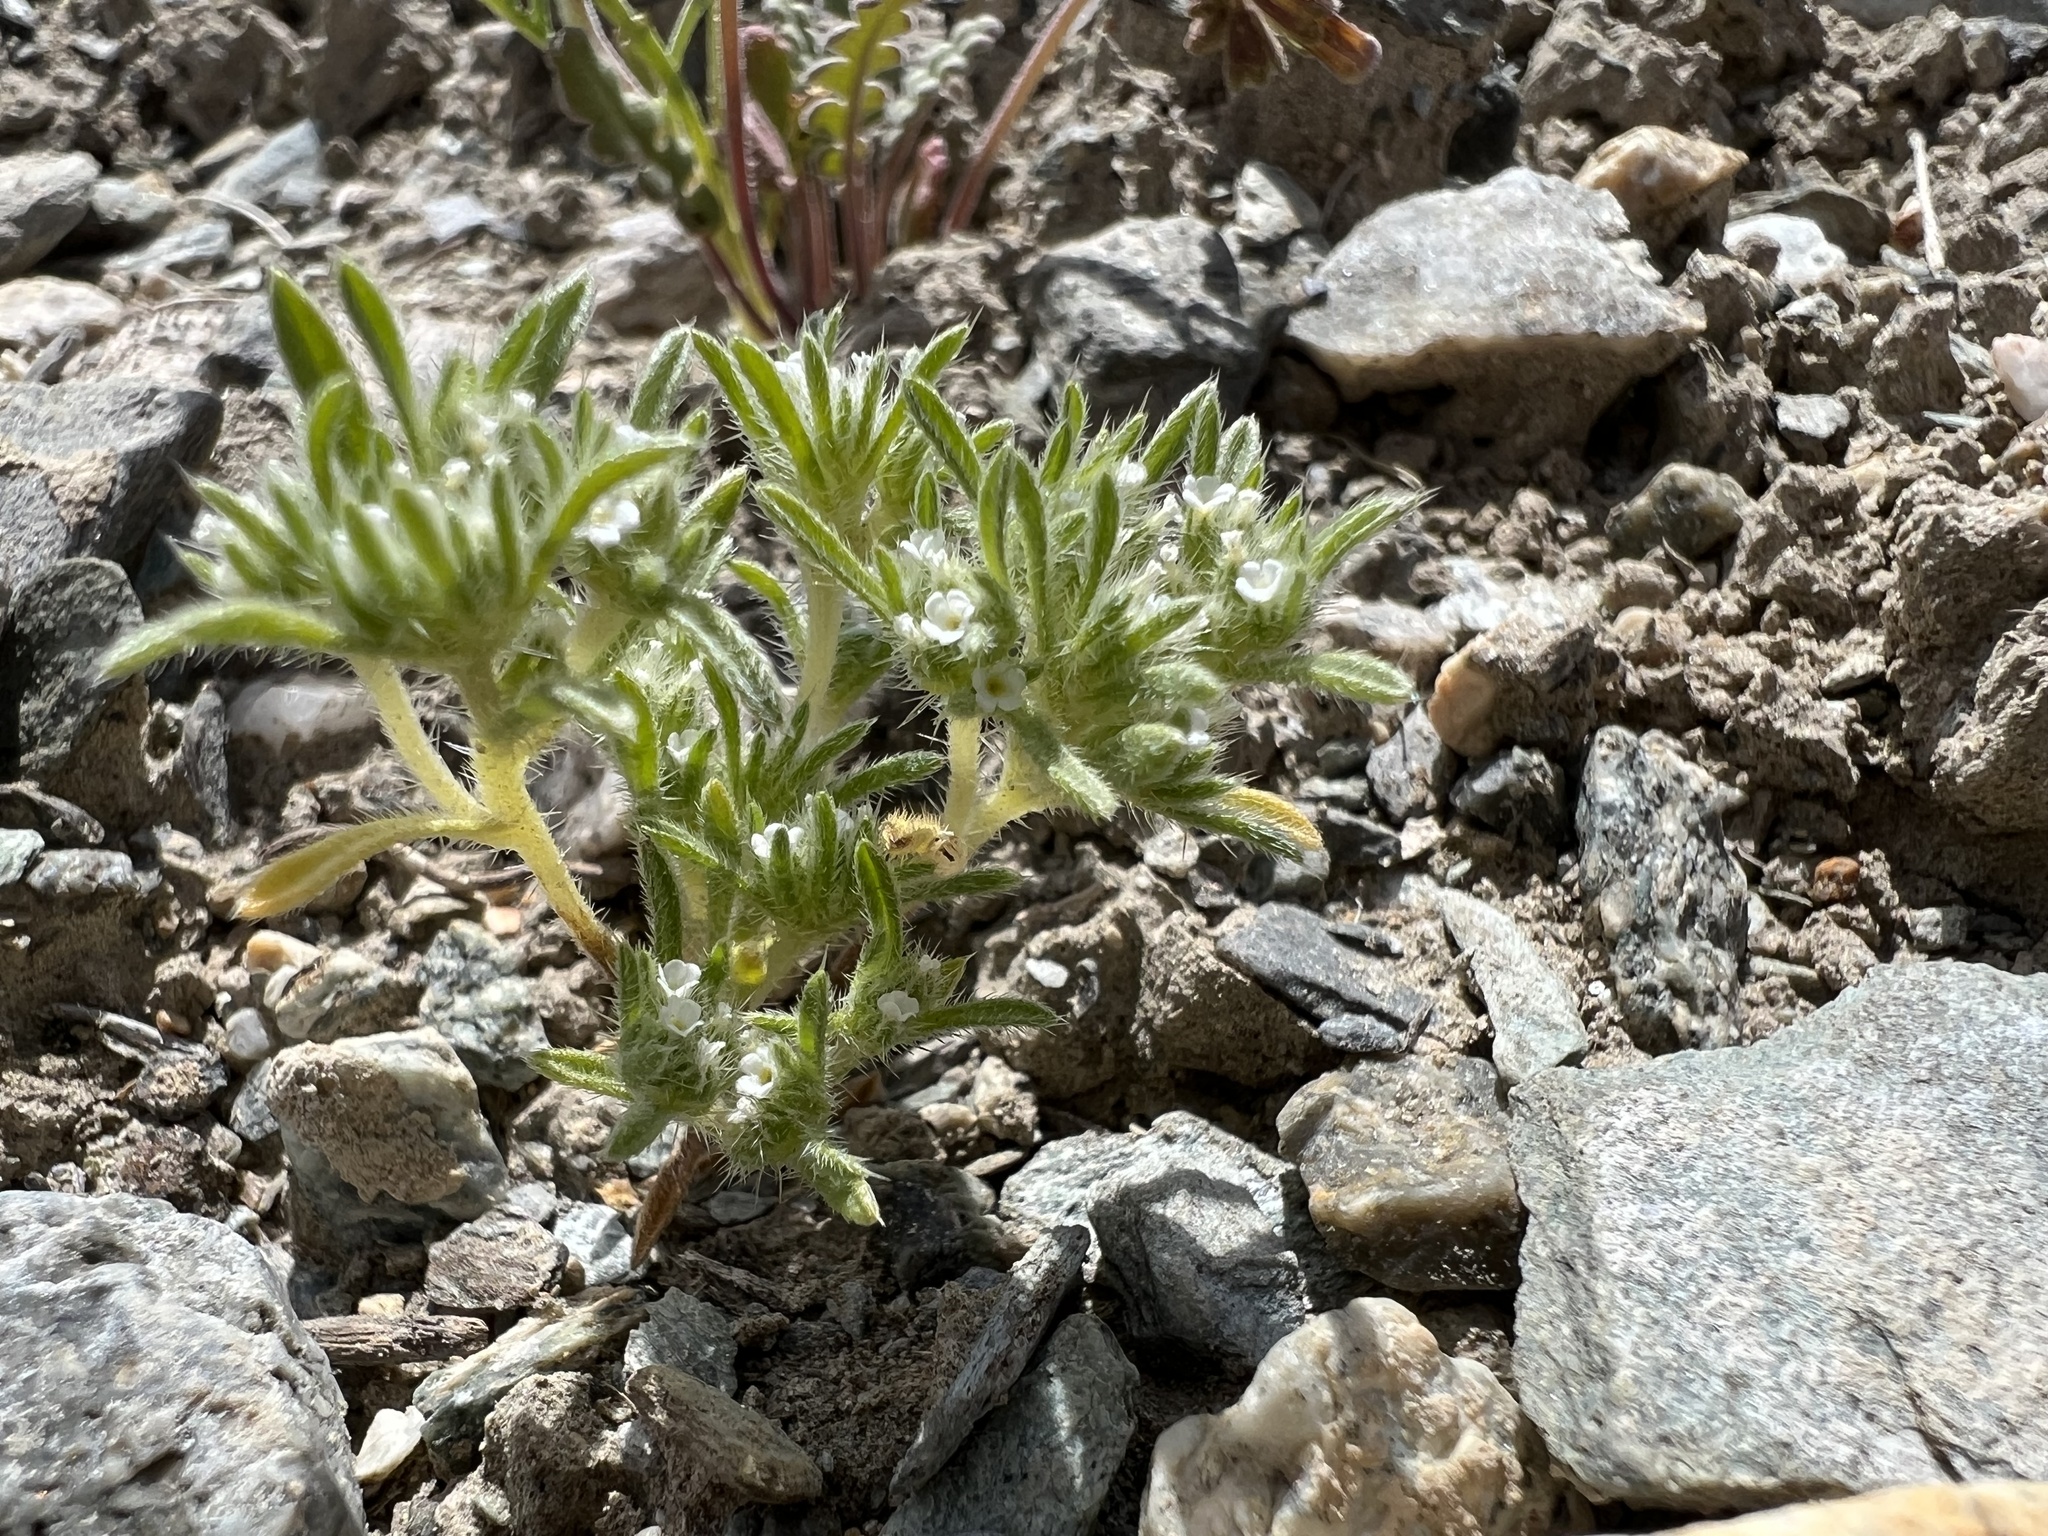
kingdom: Plantae
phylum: Tracheophyta
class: Magnoliopsida
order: Boraginales
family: Boraginaceae
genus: Greeneocharis
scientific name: Greeneocharis circumscissa
